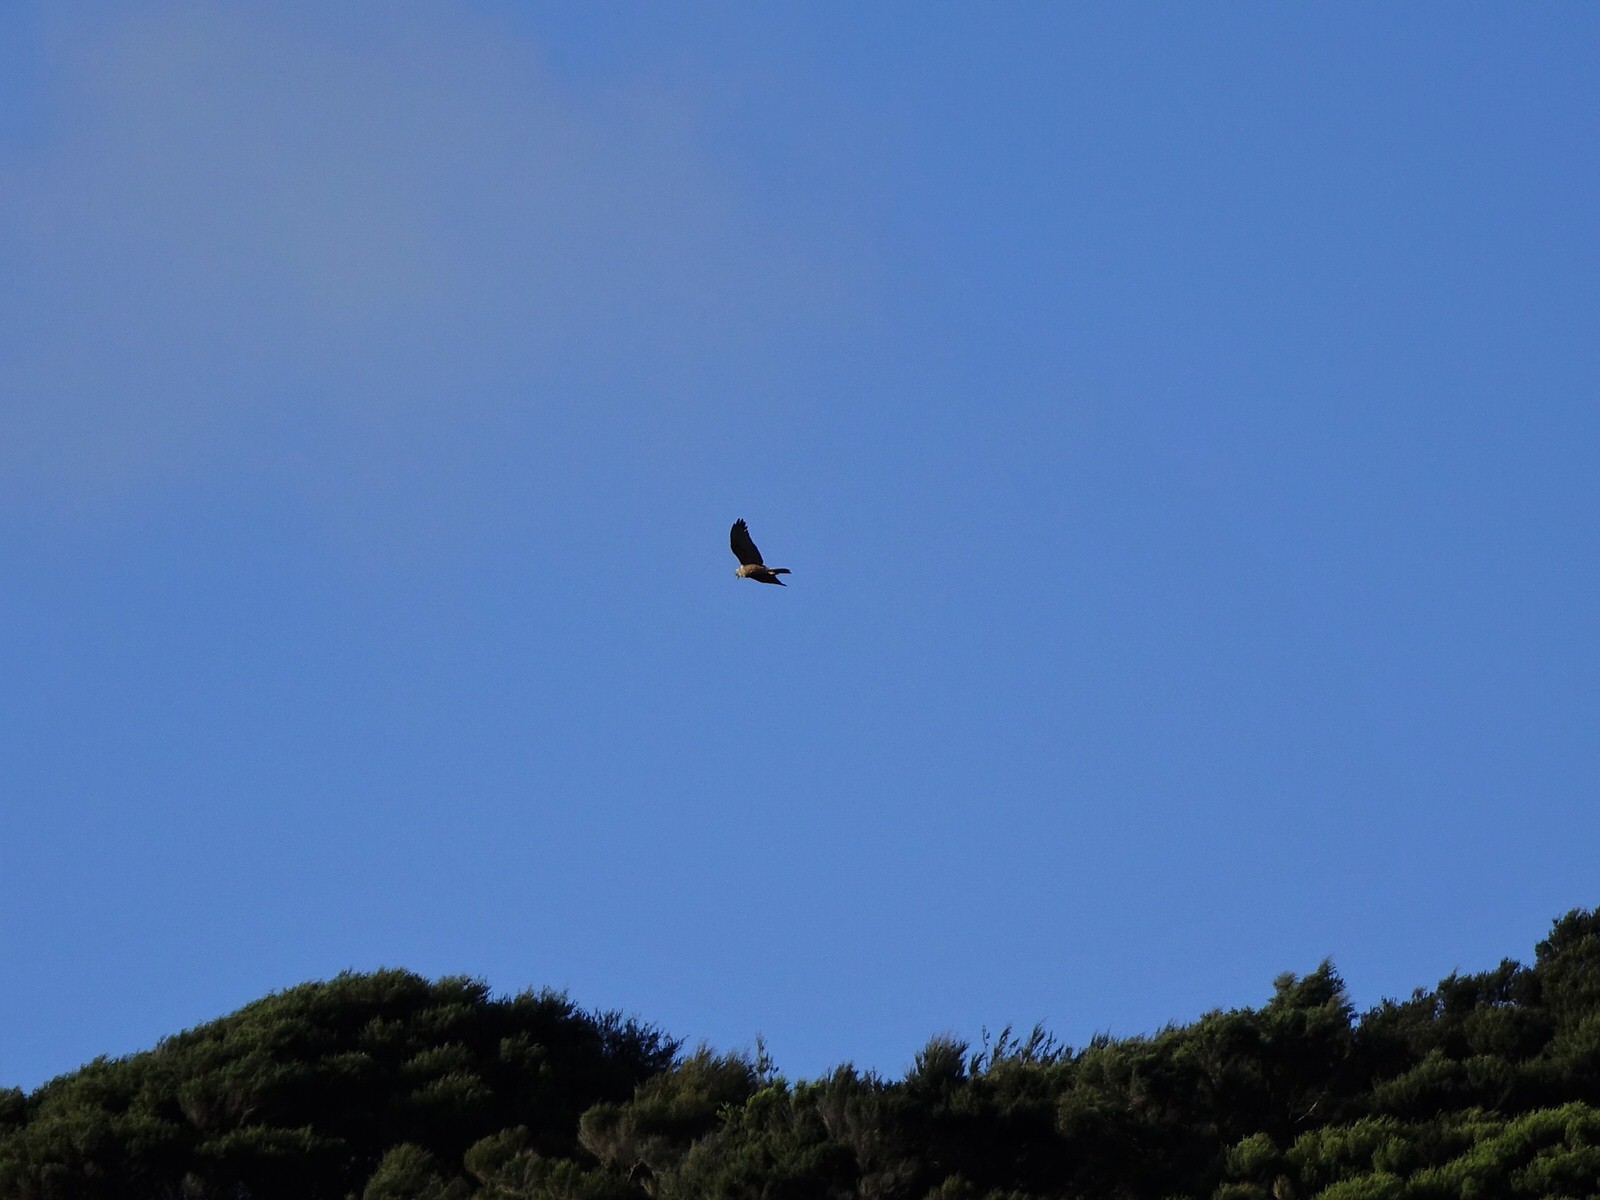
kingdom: Animalia
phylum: Chordata
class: Aves
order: Accipitriformes
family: Accipitridae
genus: Circus
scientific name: Circus approximans
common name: Swamp harrier
